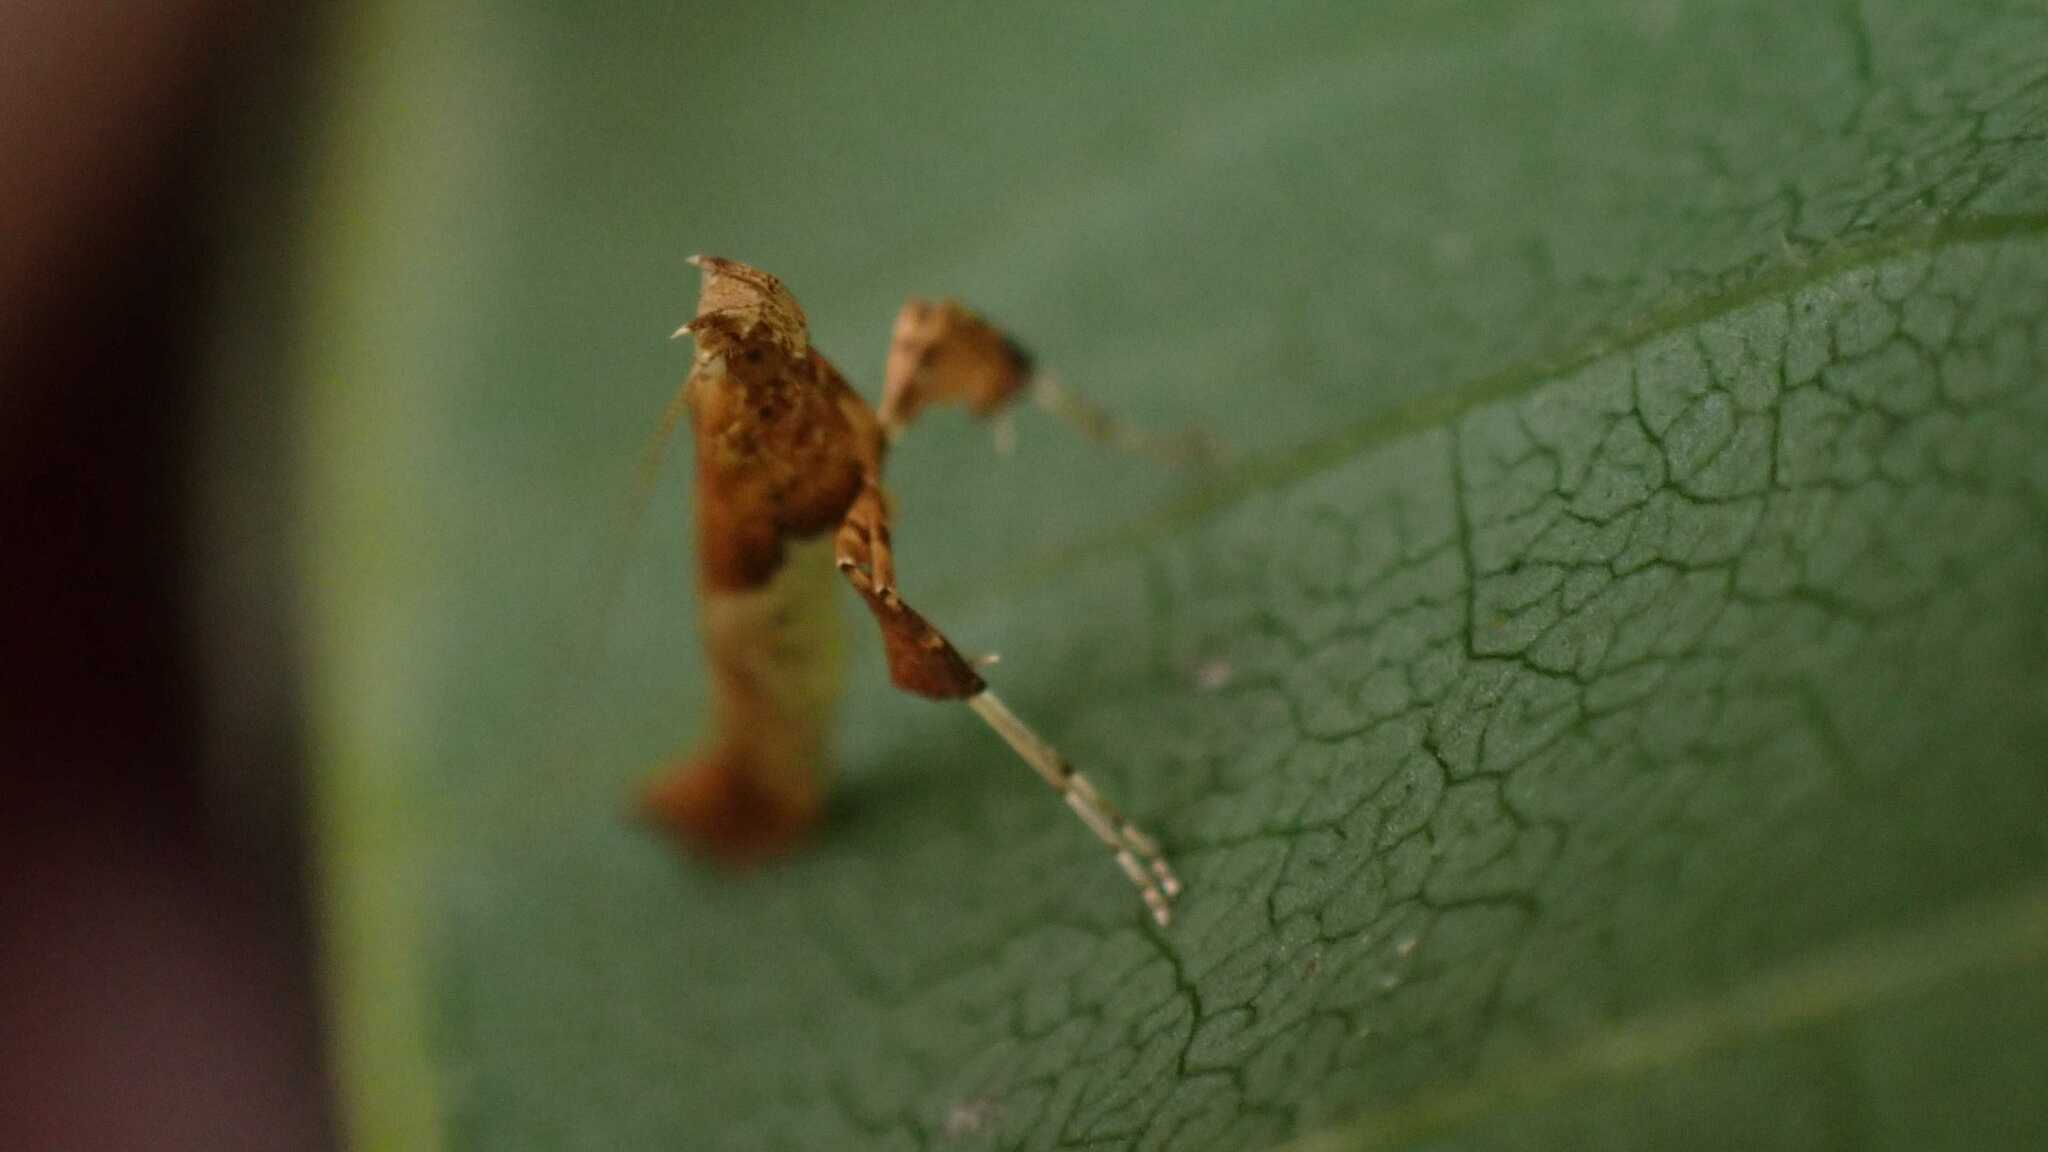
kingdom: Animalia
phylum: Arthropoda
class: Insecta
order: Lepidoptera
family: Gracillariidae
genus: Caloptilia
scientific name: Caloptilia stigmatella
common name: White-triangle slender
